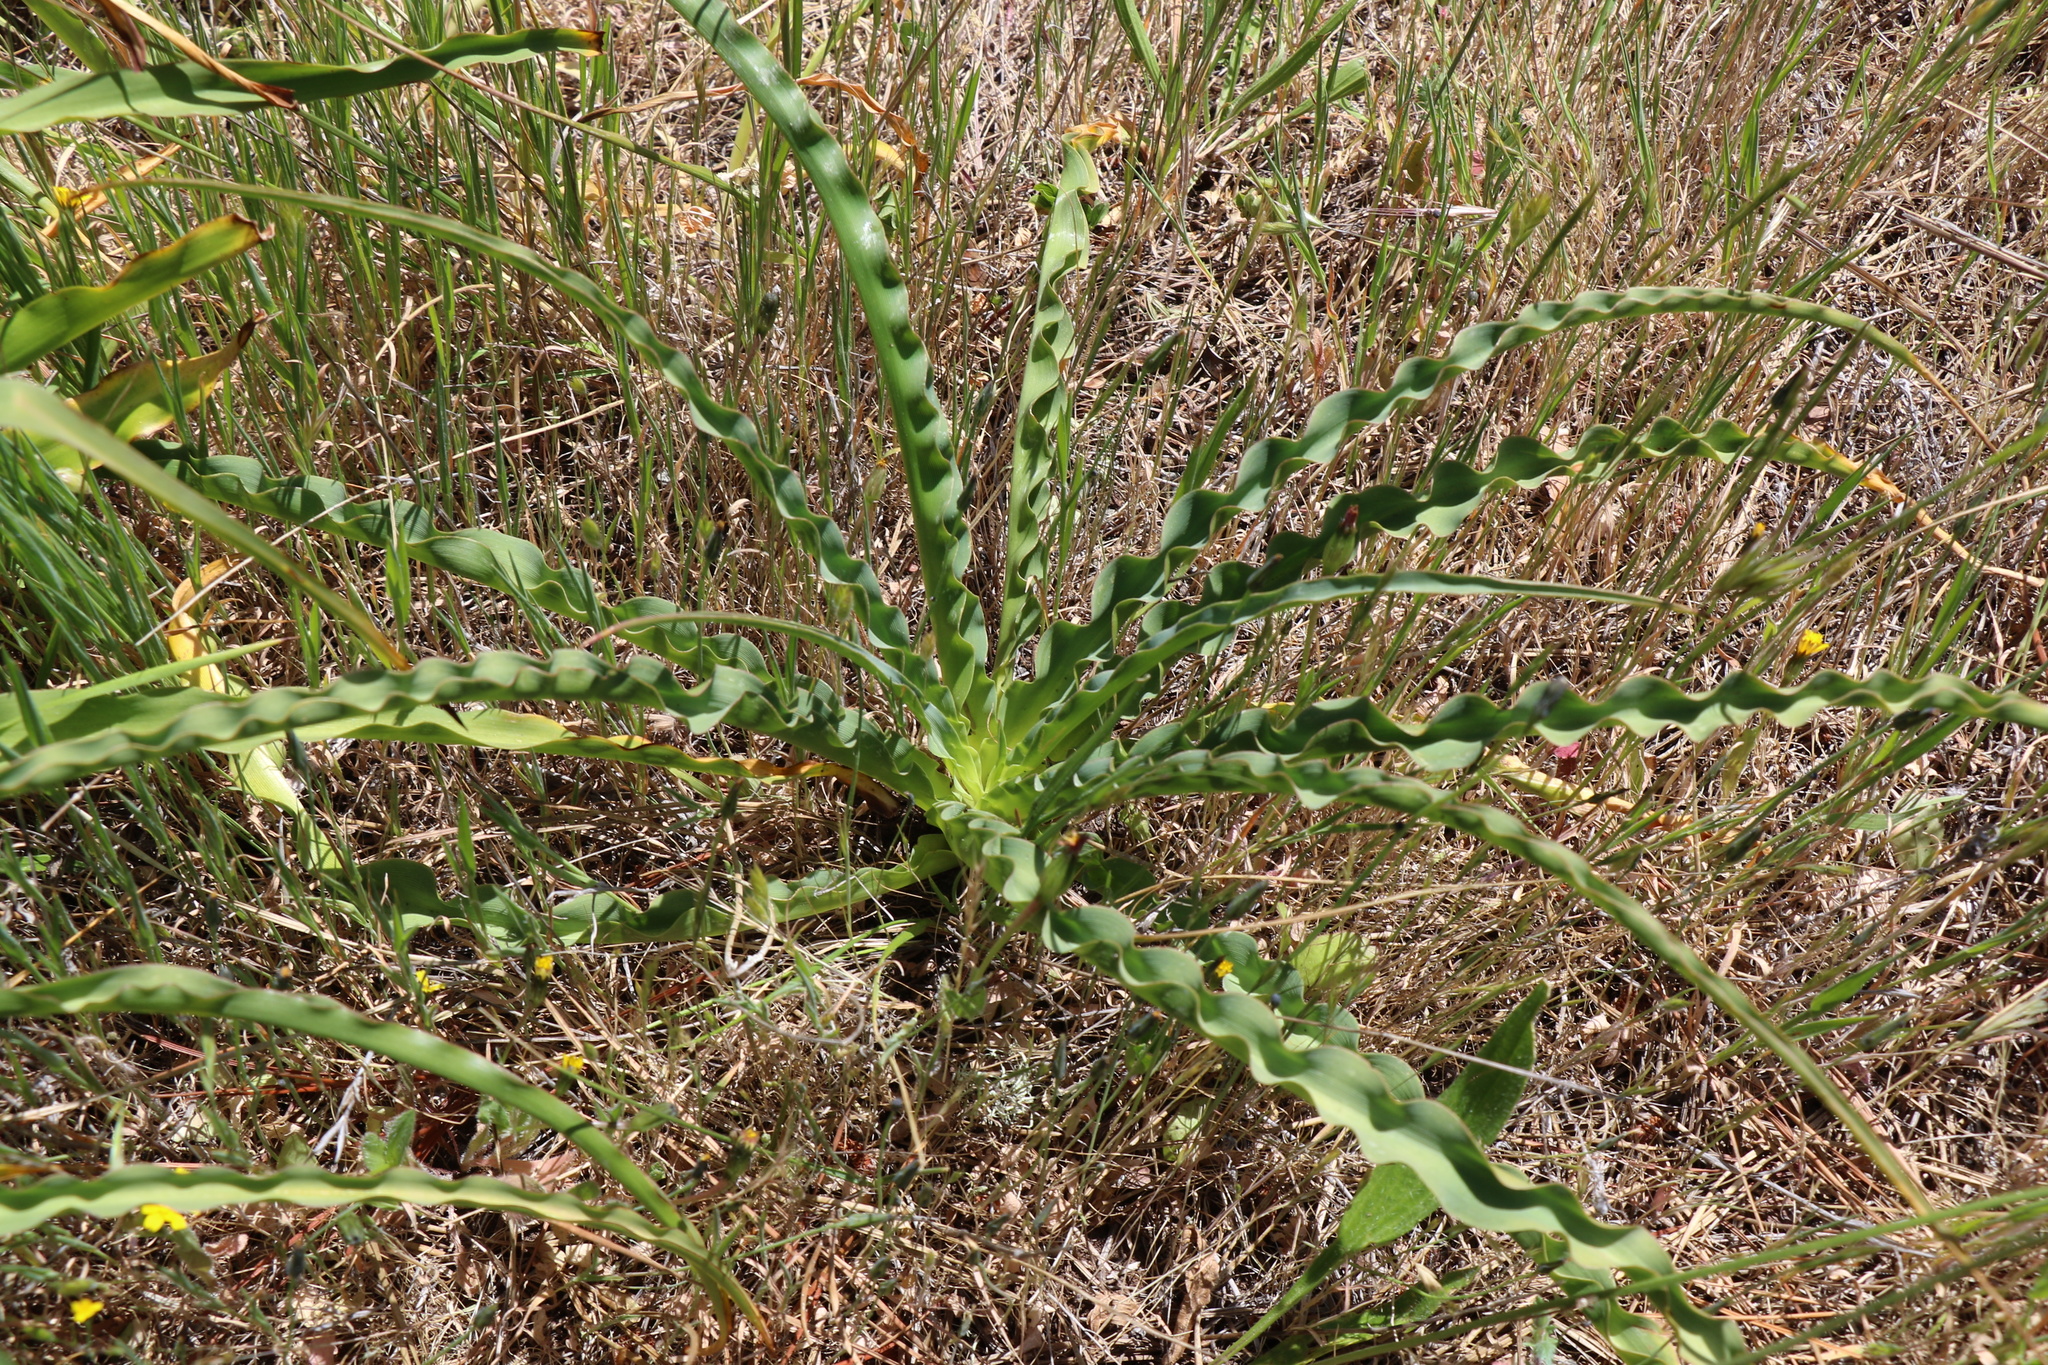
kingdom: Plantae
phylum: Tracheophyta
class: Liliopsida
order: Asparagales
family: Asparagaceae
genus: Chlorogalum
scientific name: Chlorogalum pomeridianum
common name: Amole
